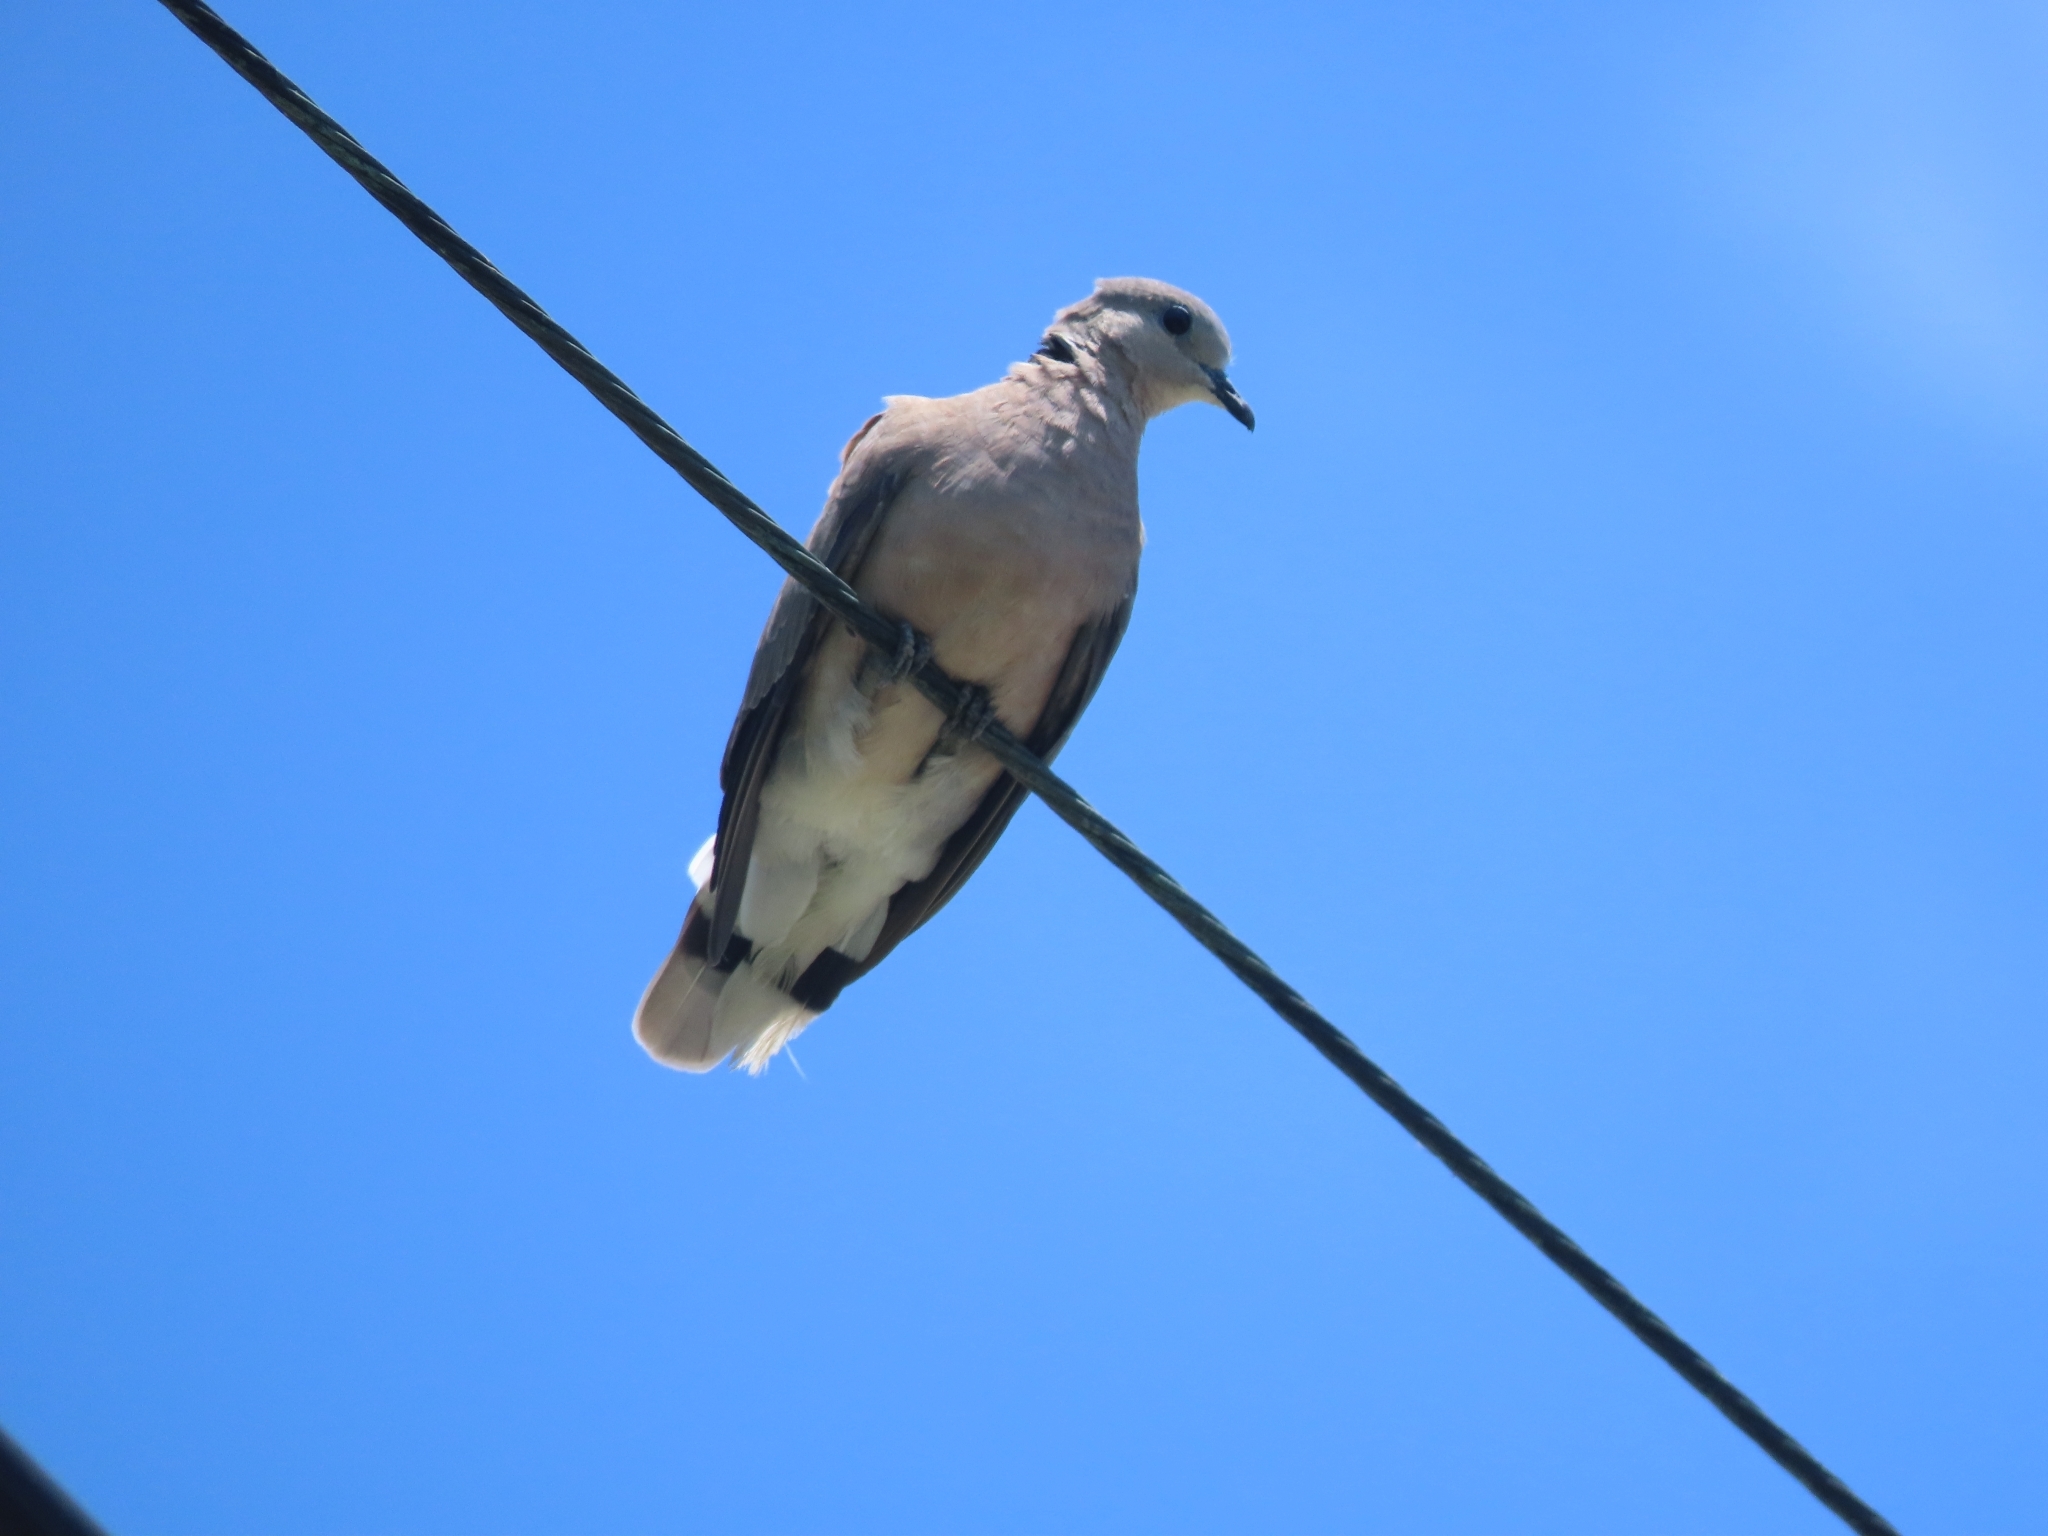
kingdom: Animalia
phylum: Chordata
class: Aves
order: Columbiformes
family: Columbidae
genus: Streptopelia
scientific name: Streptopelia tranquebarica
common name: Red turtle dove
